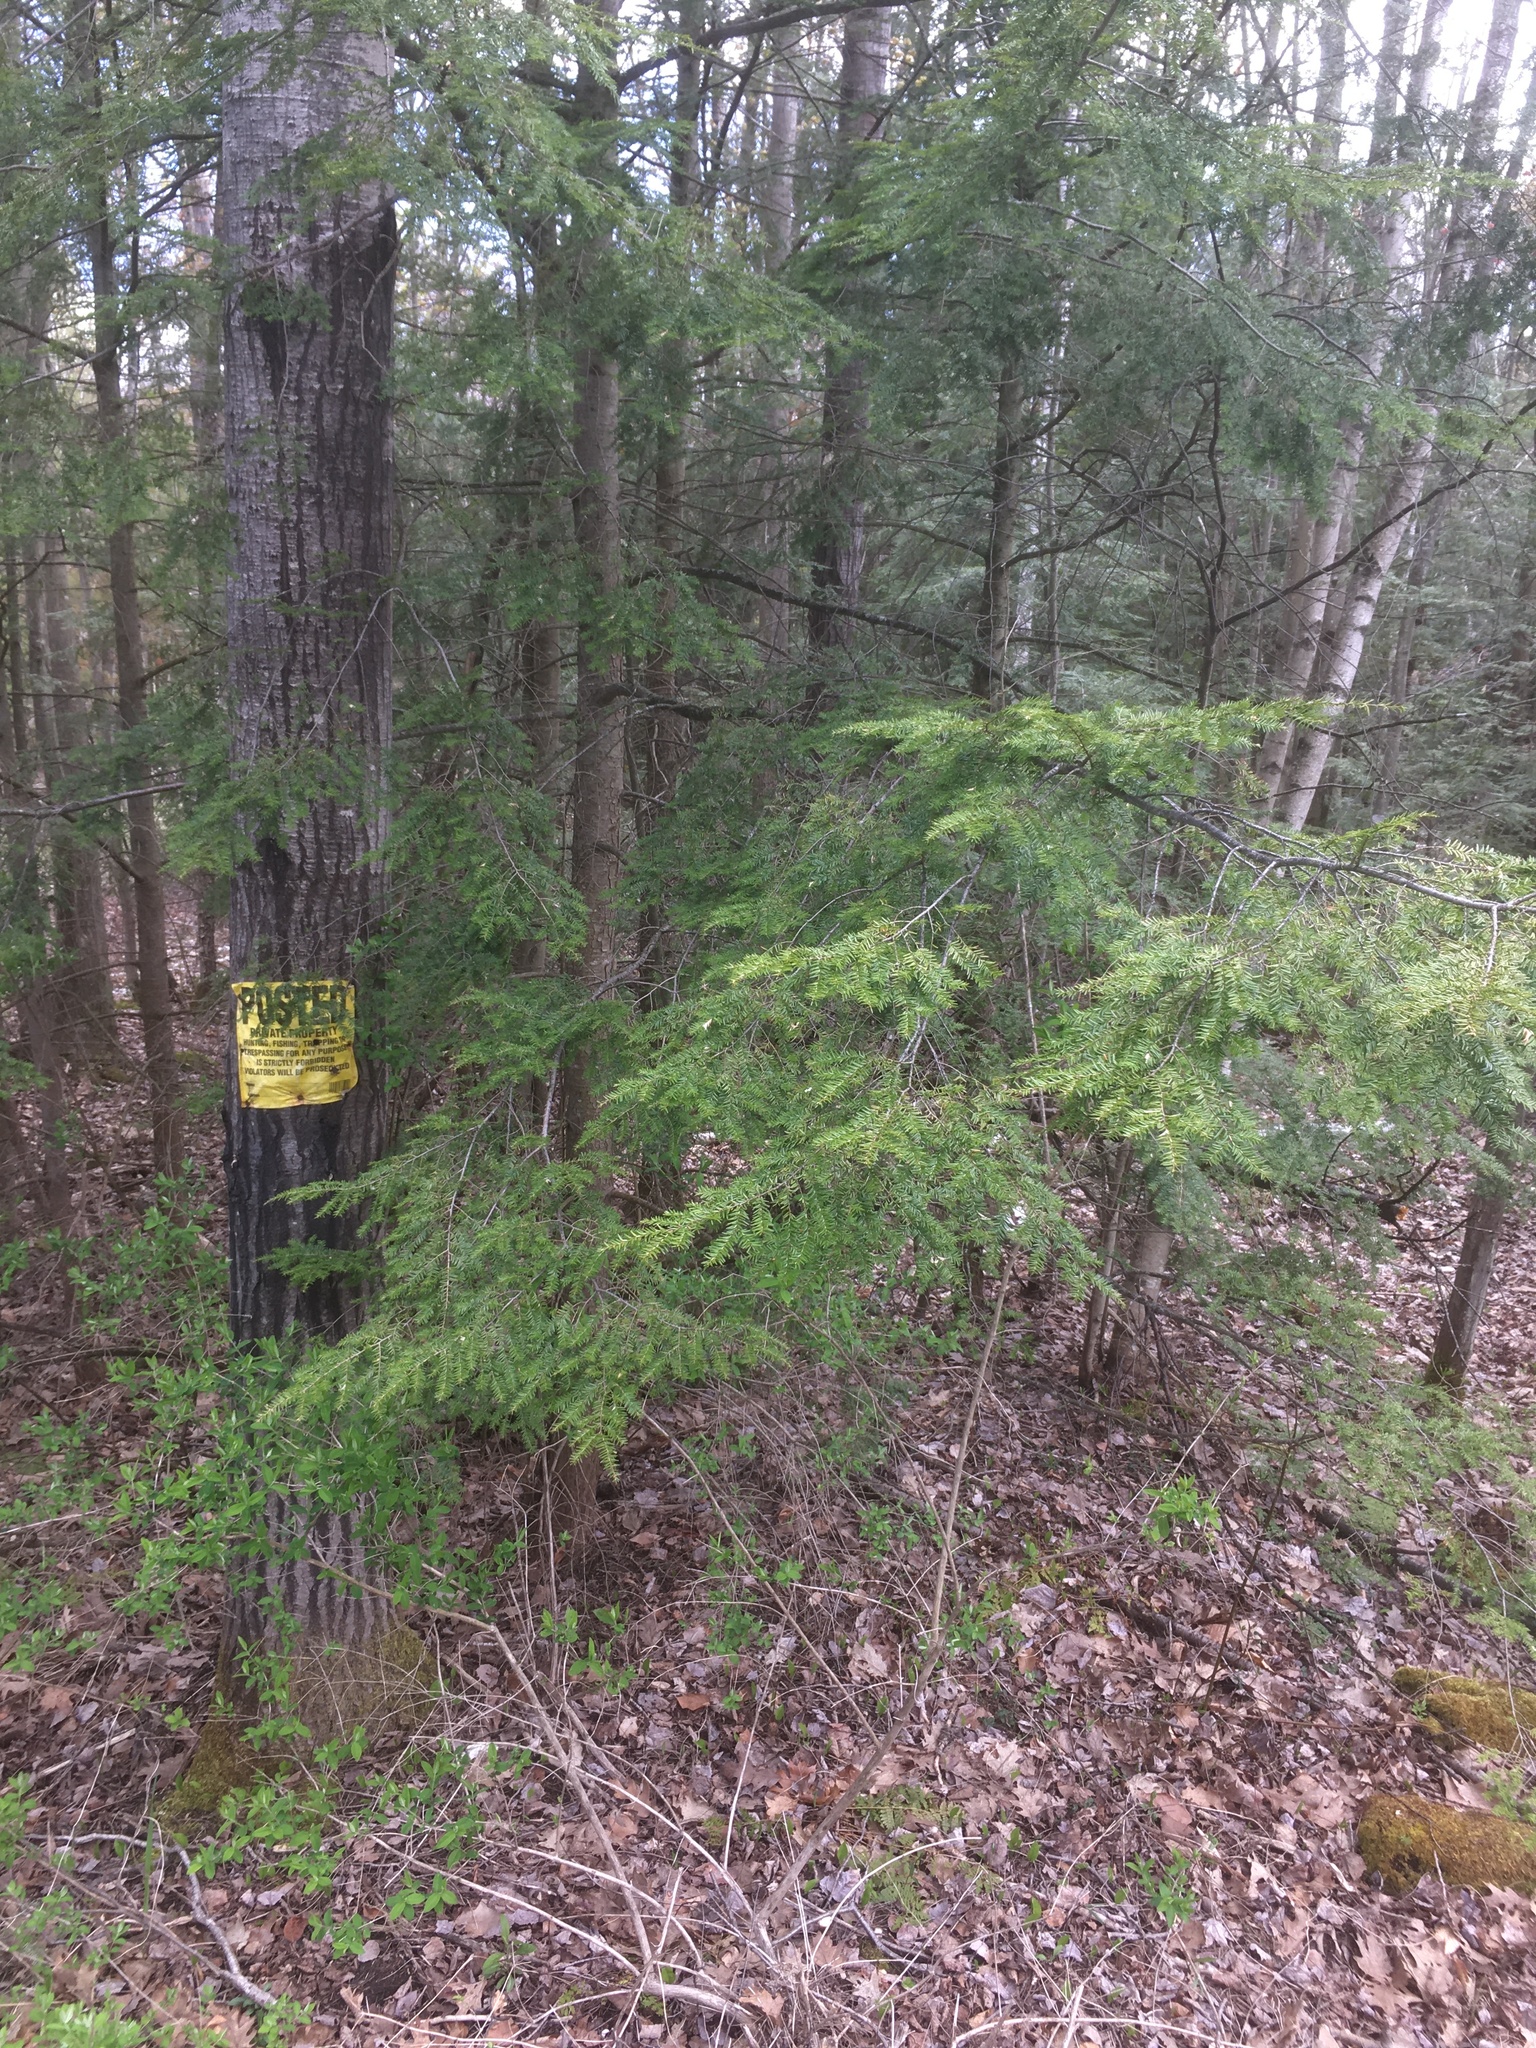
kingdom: Plantae
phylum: Tracheophyta
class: Pinopsida
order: Pinales
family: Pinaceae
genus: Tsuga
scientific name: Tsuga canadensis
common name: Eastern hemlock
